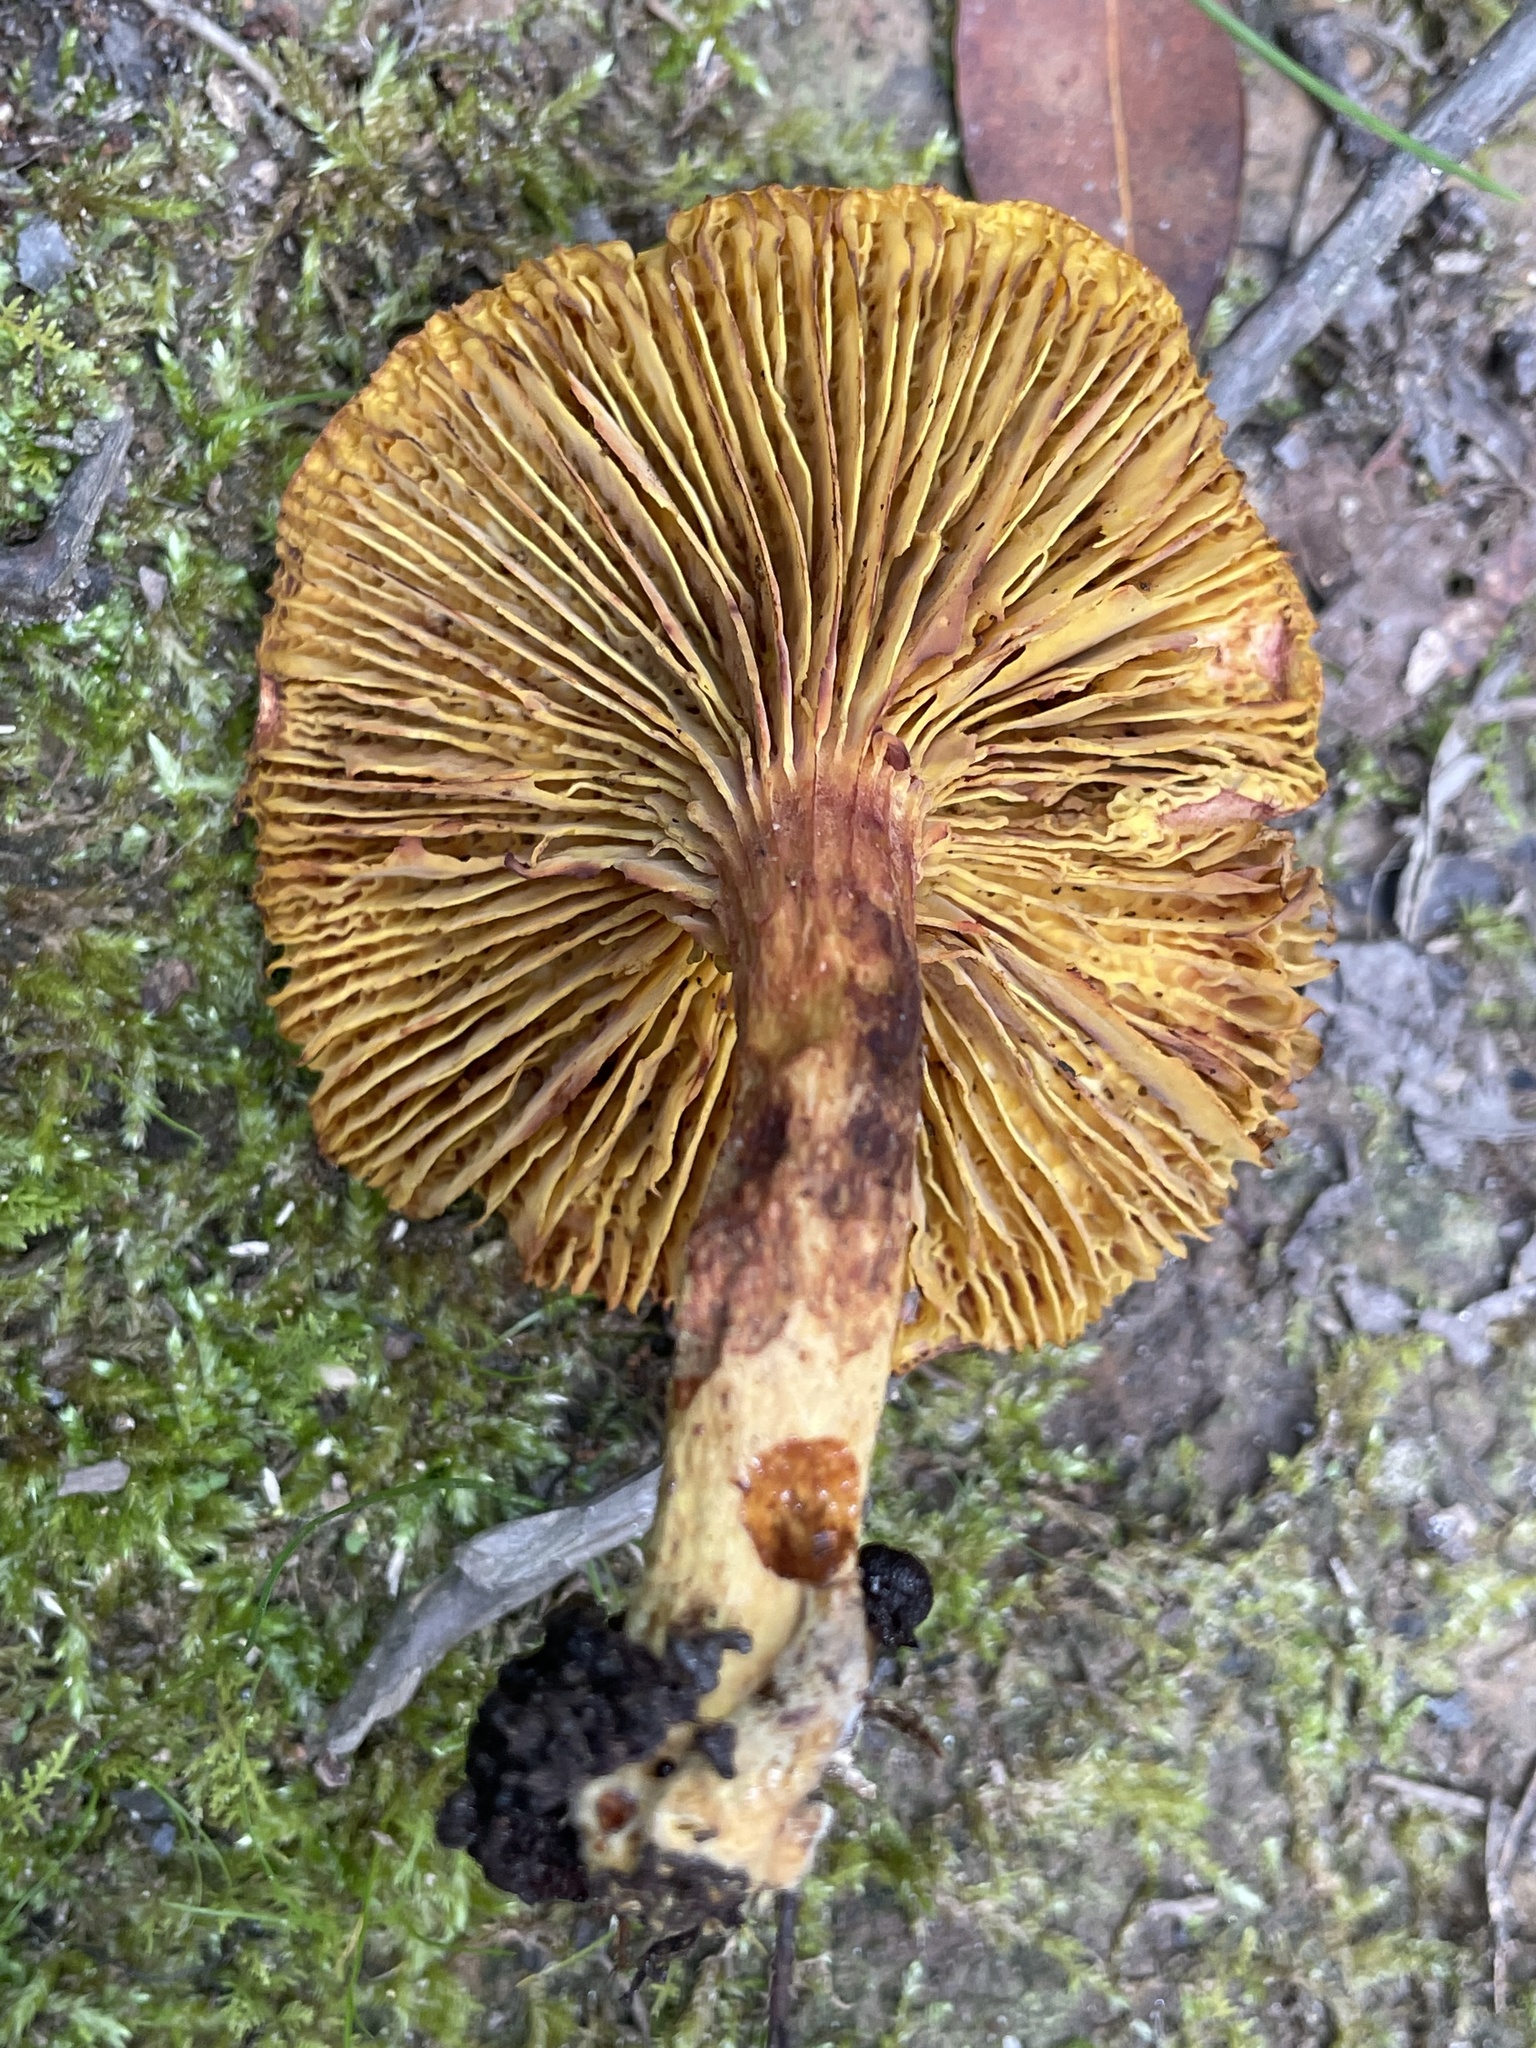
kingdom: Fungi
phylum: Basidiomycota
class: Agaricomycetes
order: Boletales
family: Boletaceae
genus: Phylloporus
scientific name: Phylloporus rhodoxanthus
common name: Golden gilled bolete
